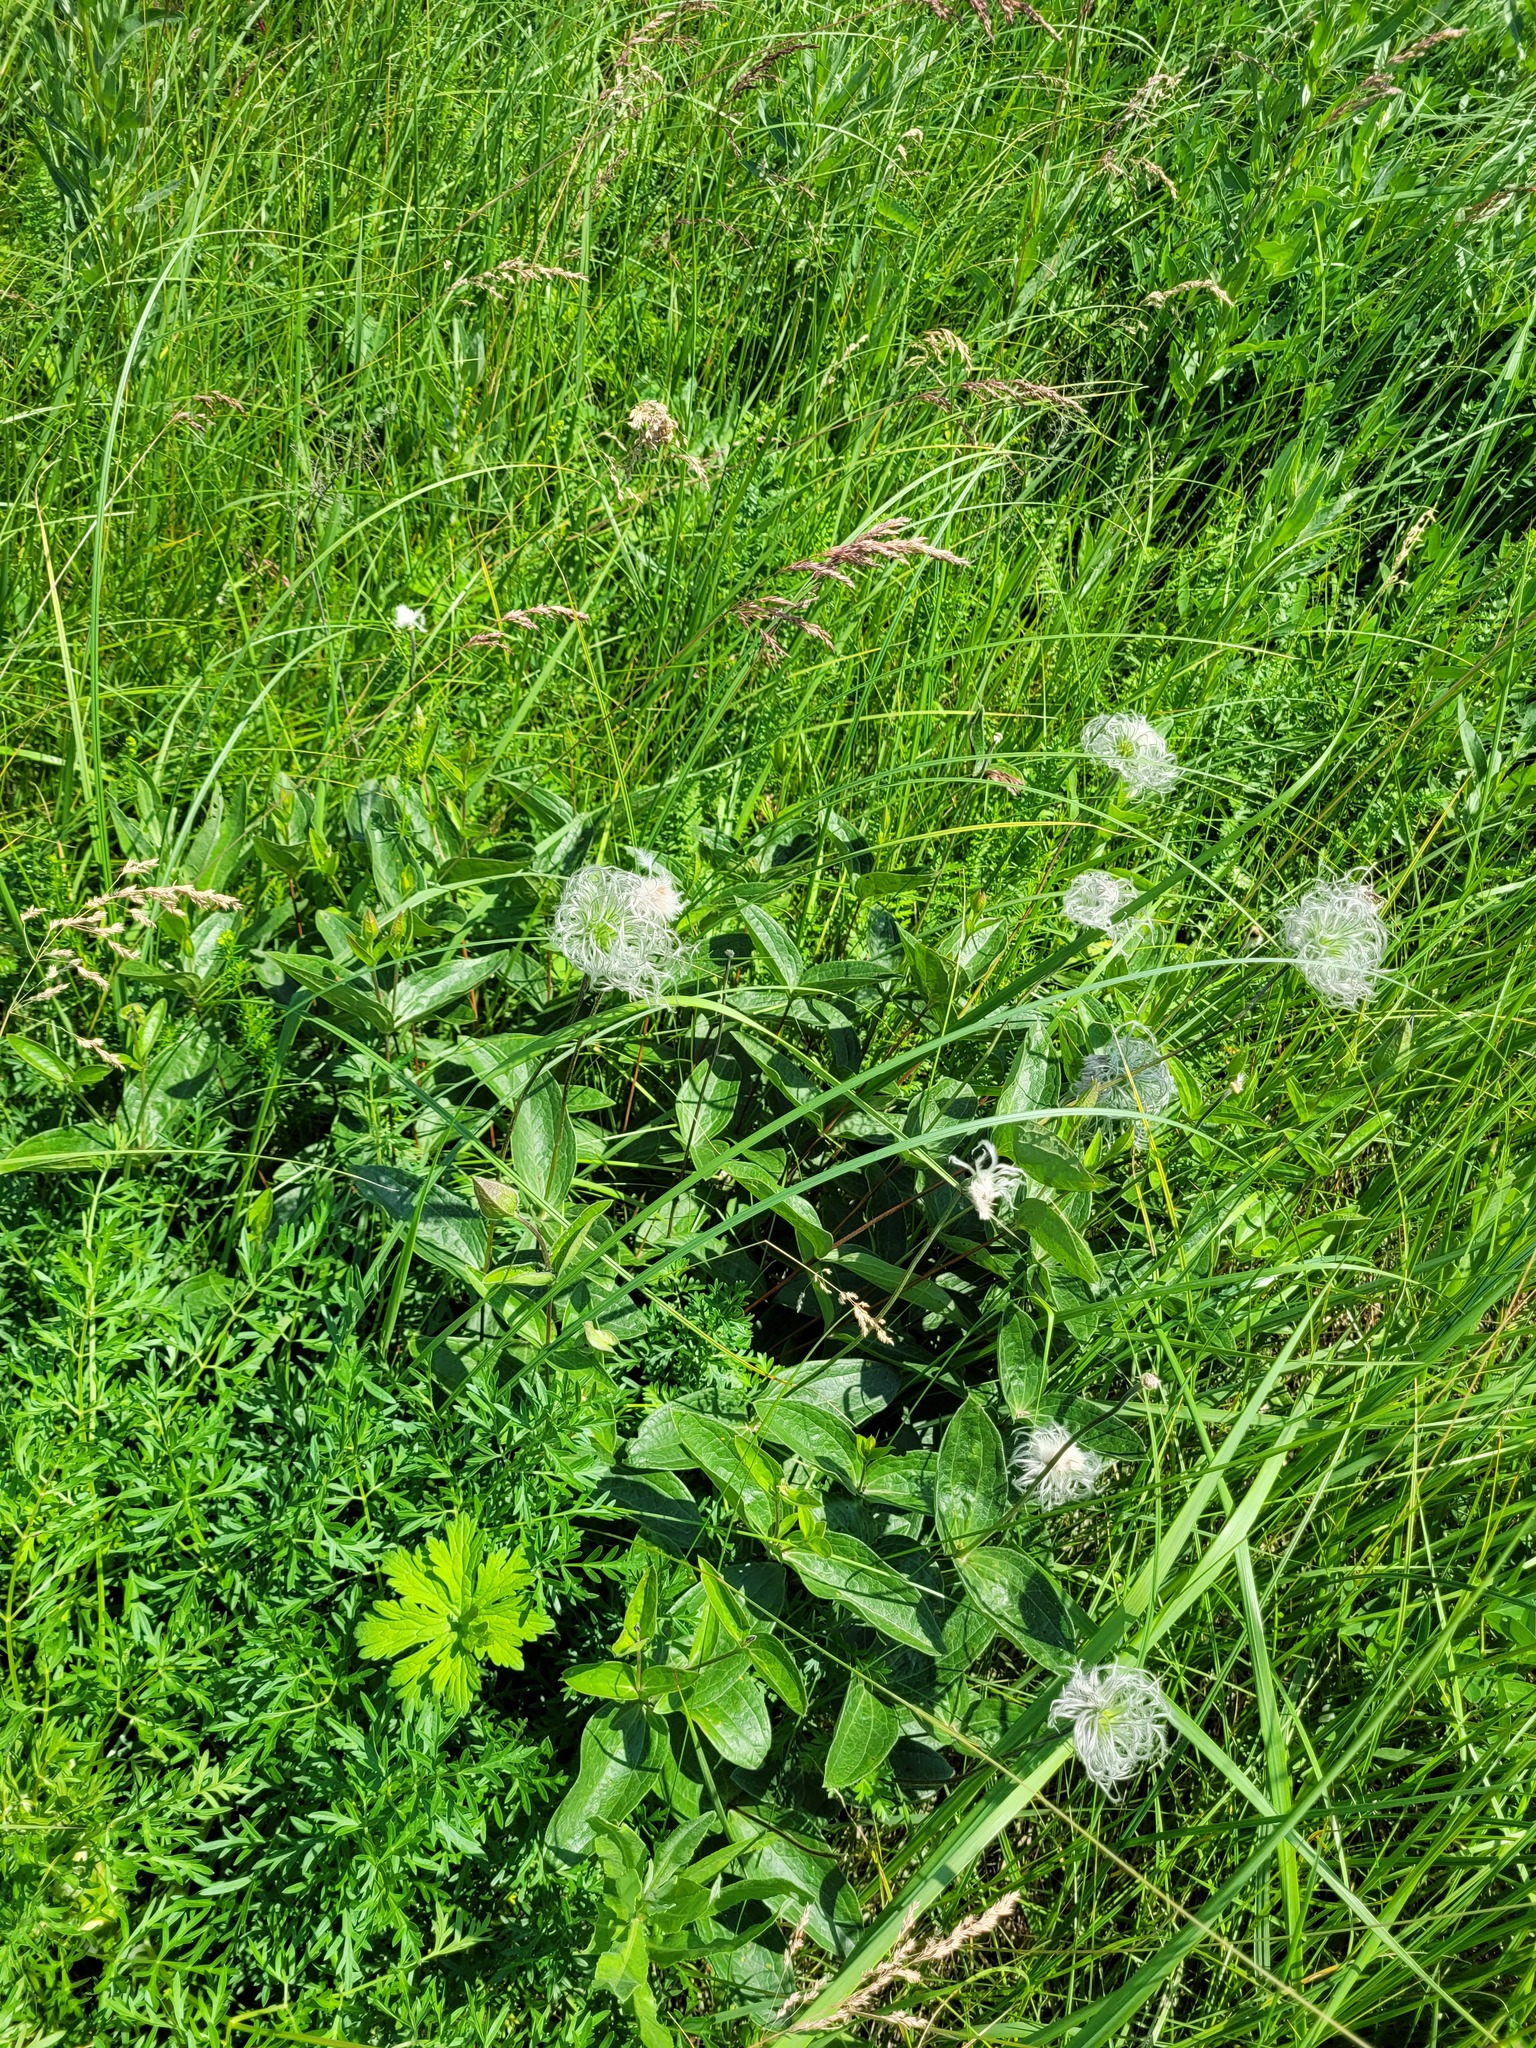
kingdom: Plantae
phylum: Tracheophyta
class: Magnoliopsida
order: Ranunculales
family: Ranunculaceae
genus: Clematis
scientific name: Clematis integrifolia
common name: Solitary clematis
